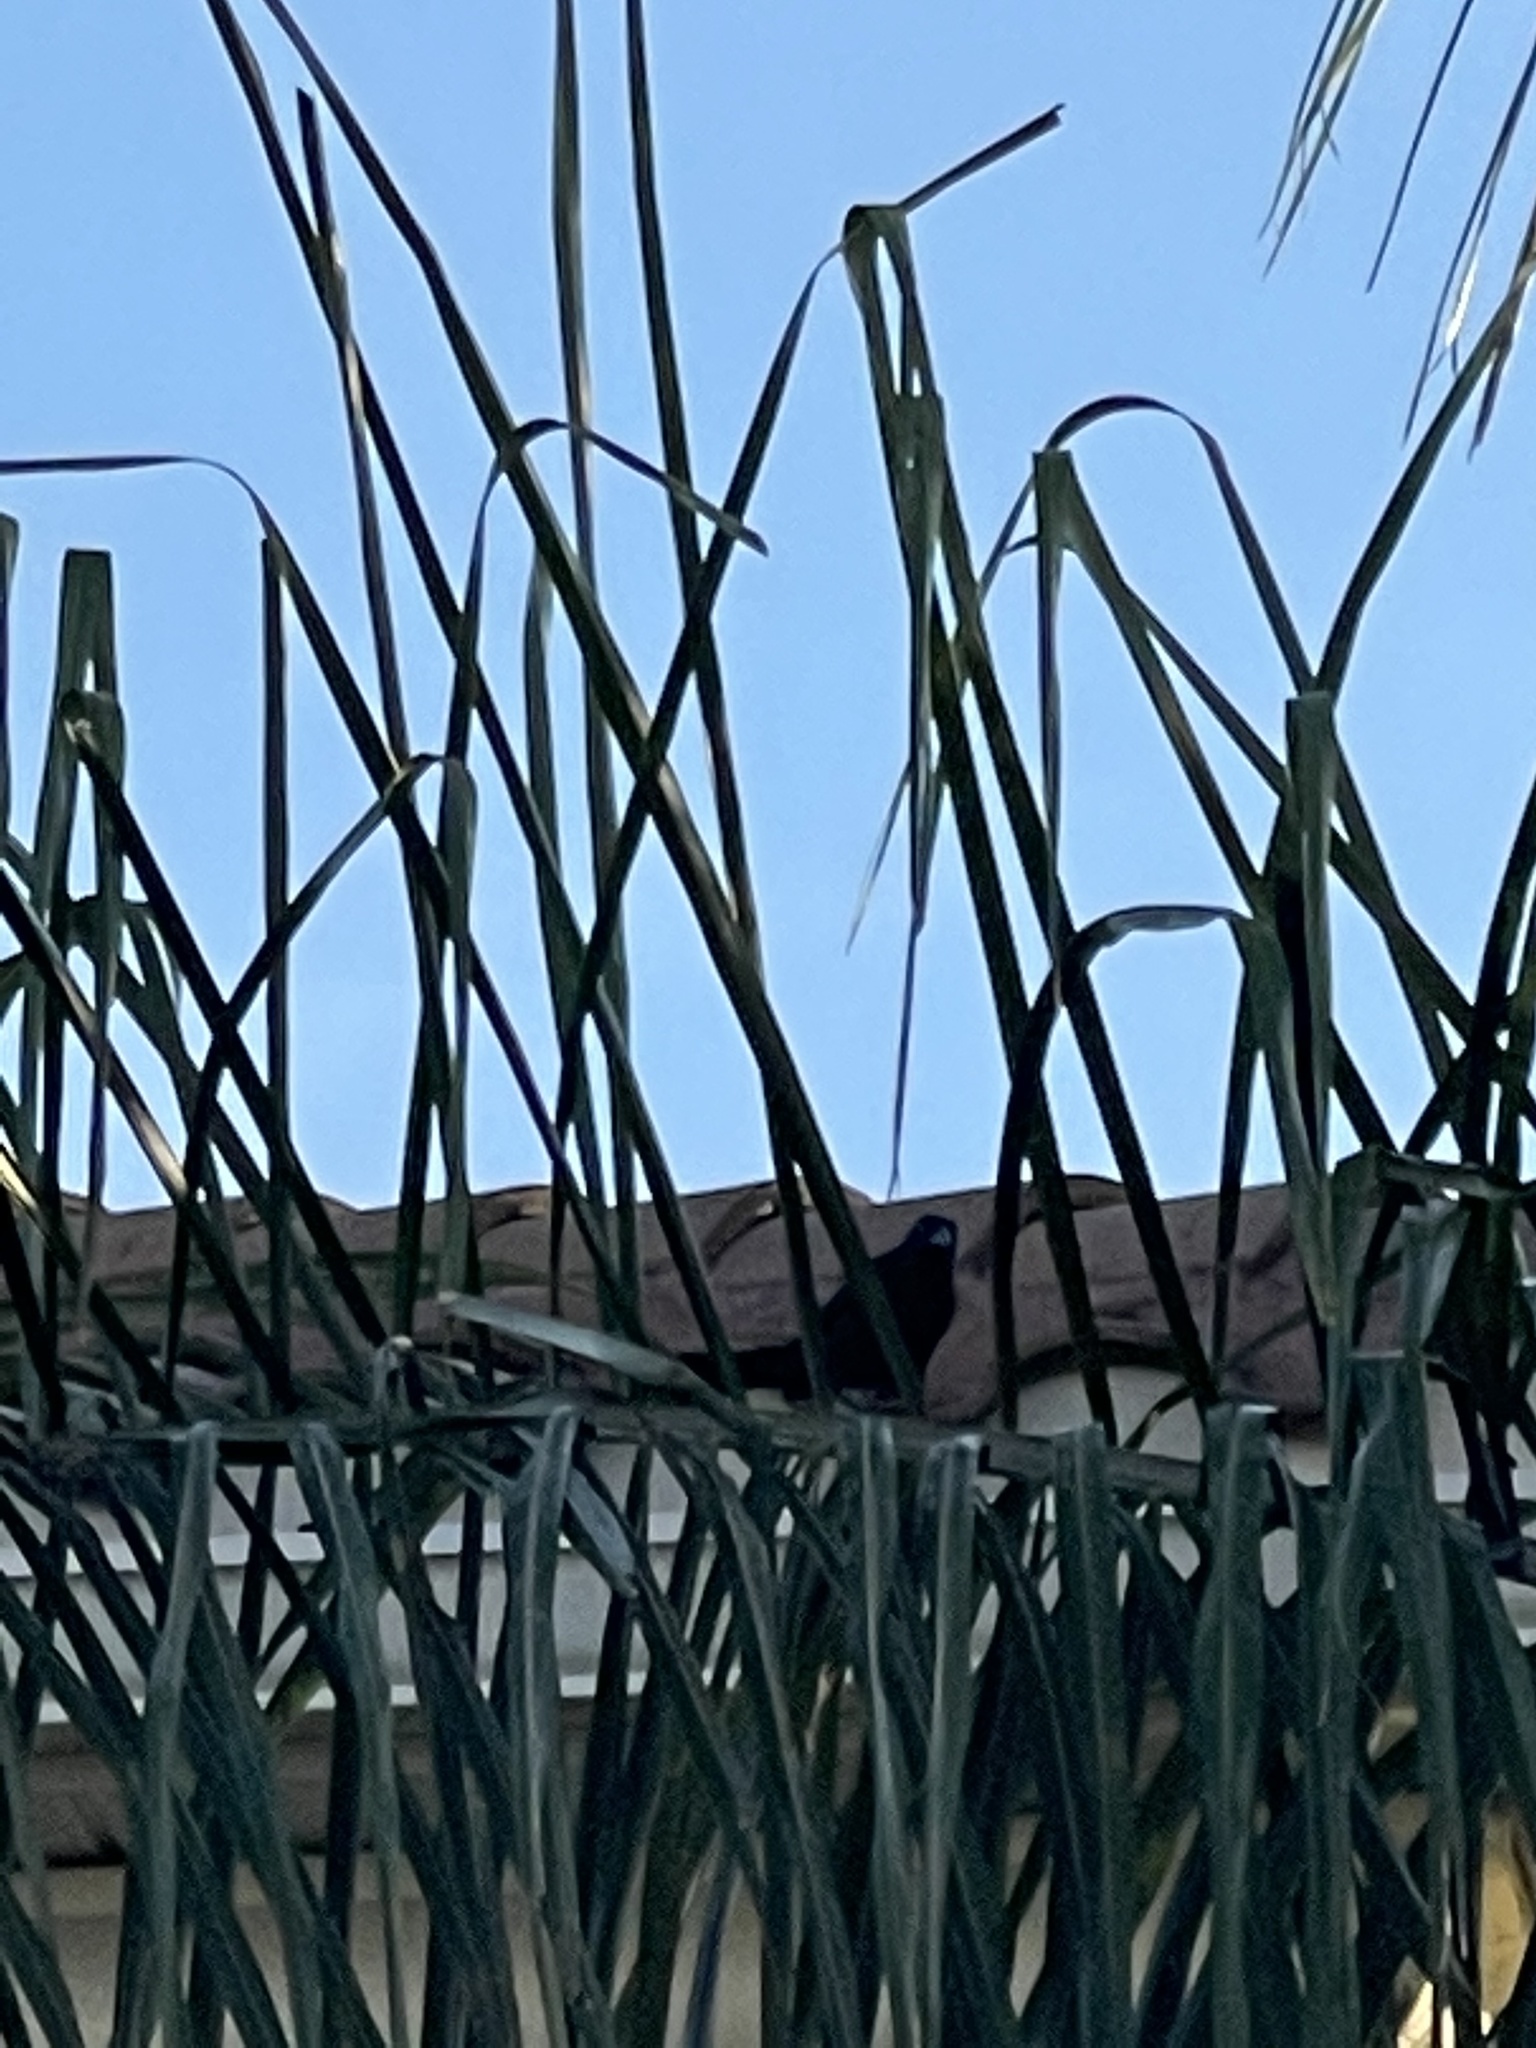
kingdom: Animalia
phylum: Chordata
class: Aves
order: Passeriformes
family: Icteridae
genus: Quiscalus
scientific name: Quiscalus major
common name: Boat-tailed grackle
